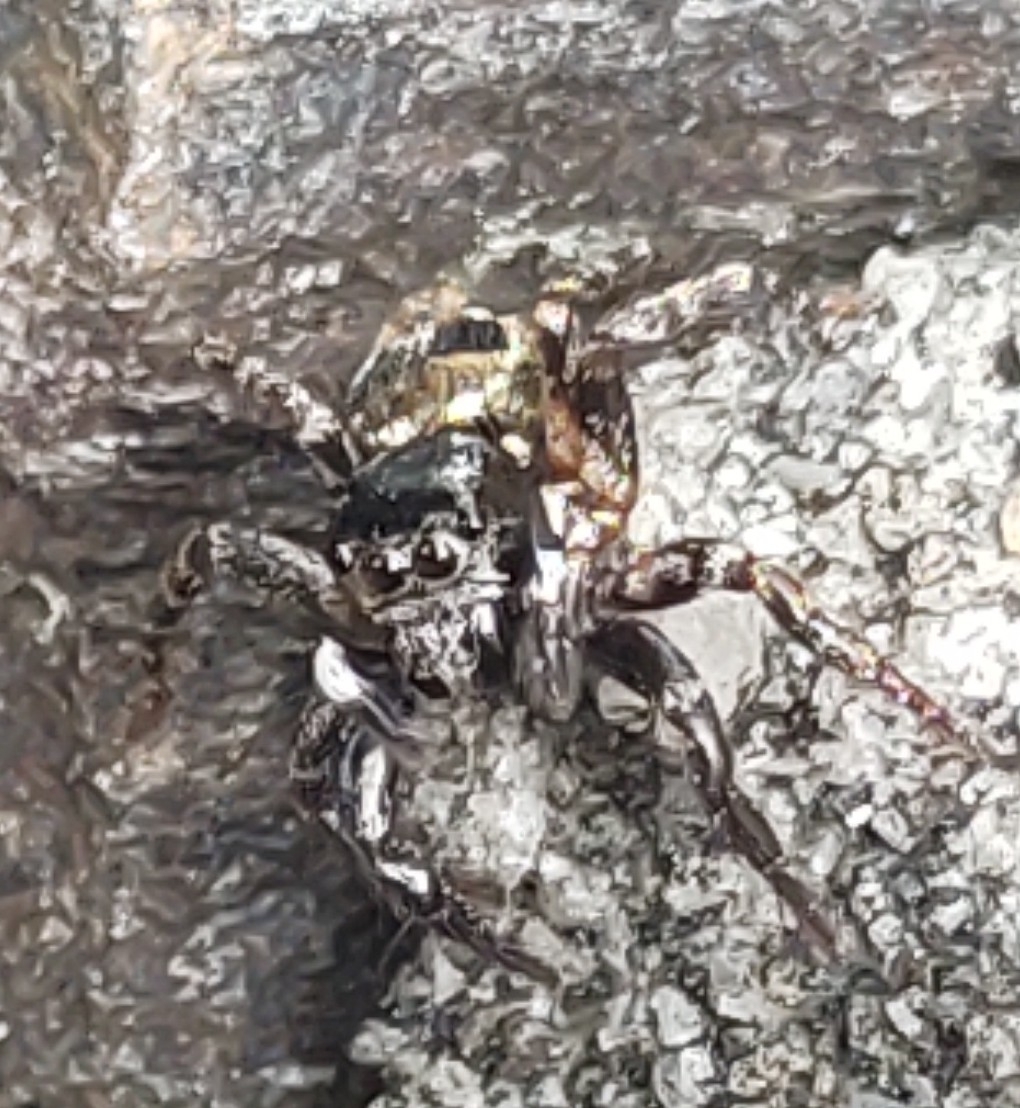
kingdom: Animalia
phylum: Arthropoda
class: Arachnida
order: Araneae
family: Salticidae
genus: Anasaitis
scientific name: Anasaitis canosa
